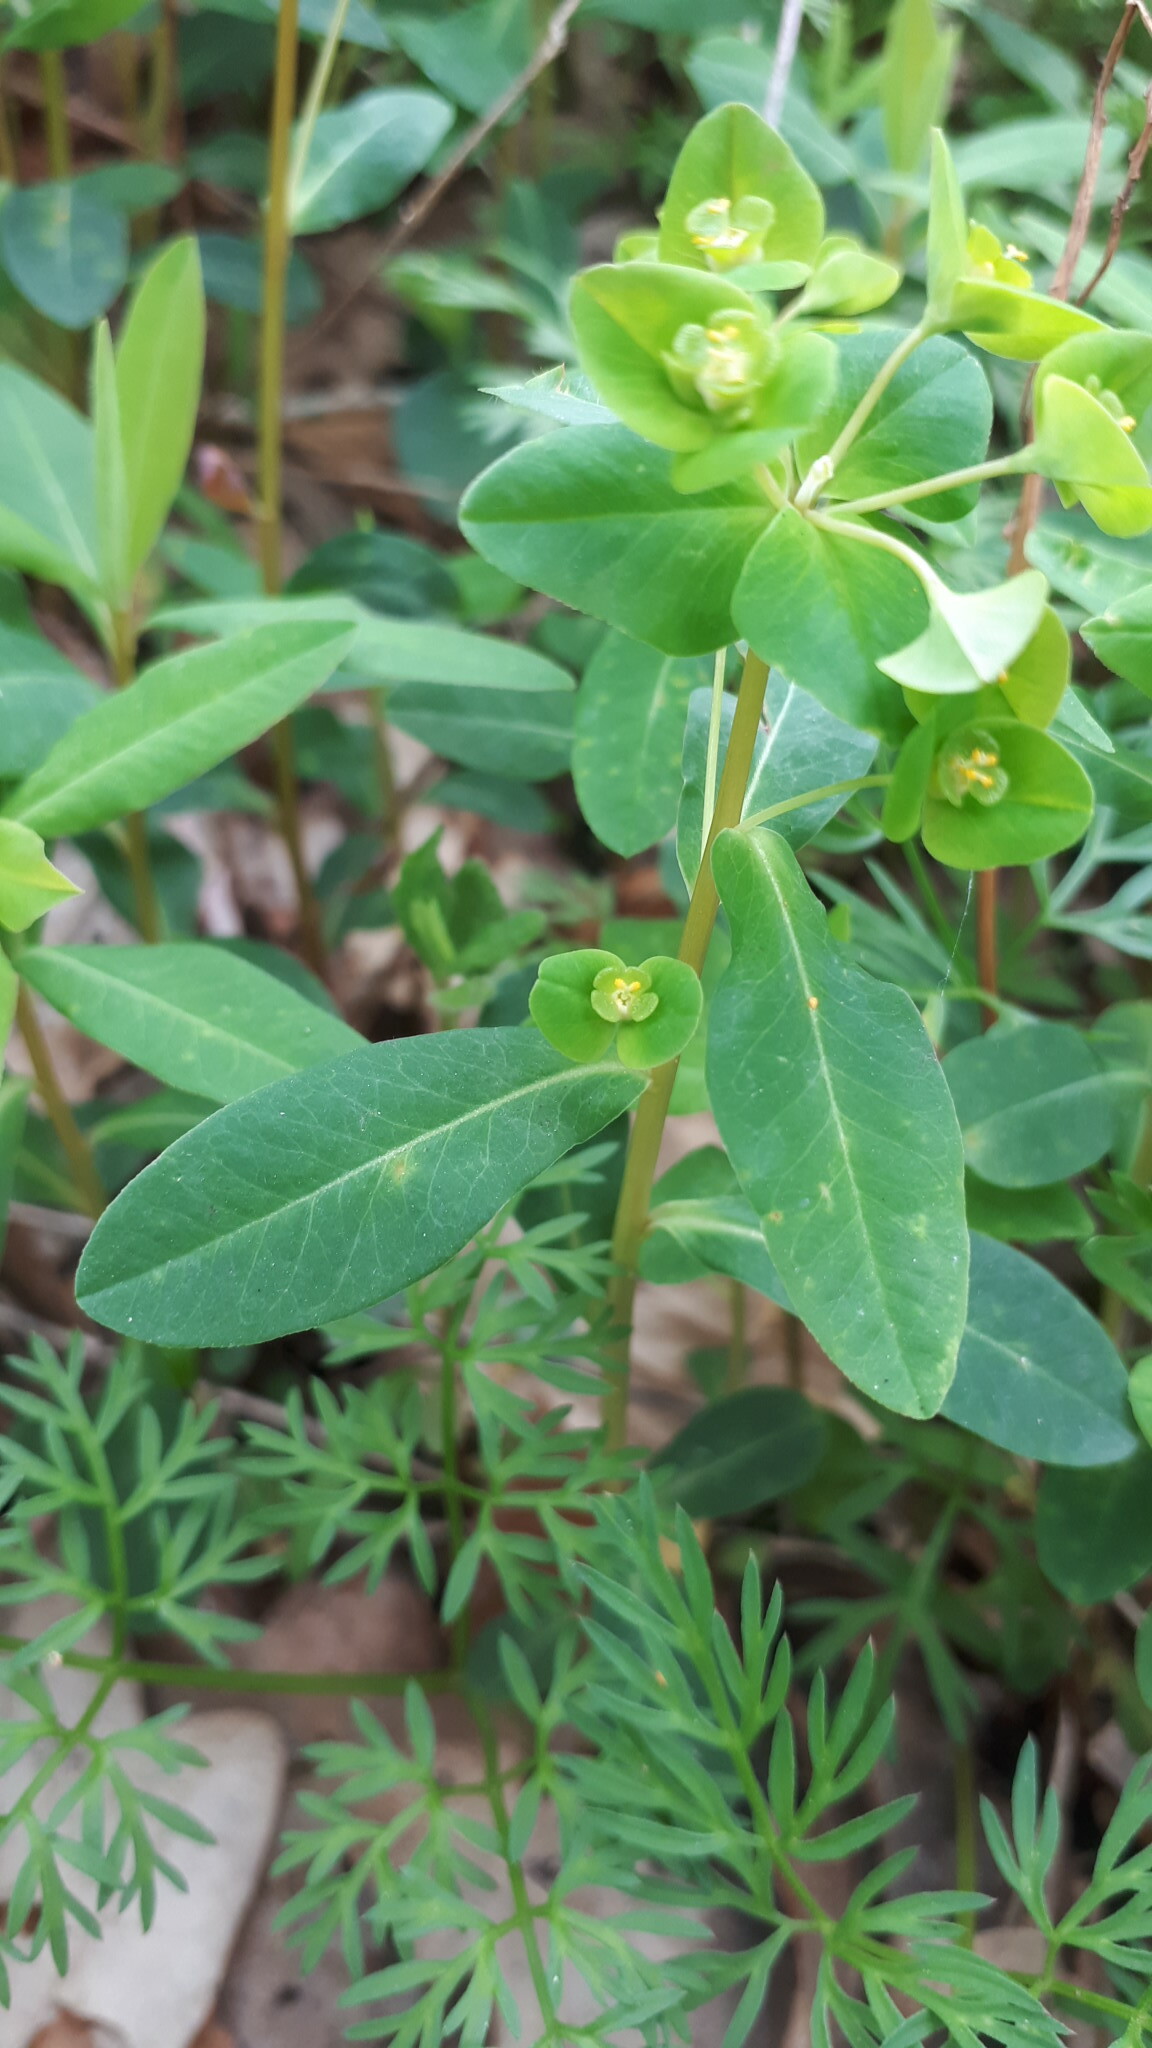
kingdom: Plantae
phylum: Tracheophyta
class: Magnoliopsida
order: Malpighiales
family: Euphorbiaceae
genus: Euphorbia
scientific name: Euphorbia dulcis
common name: Sweet spurge
